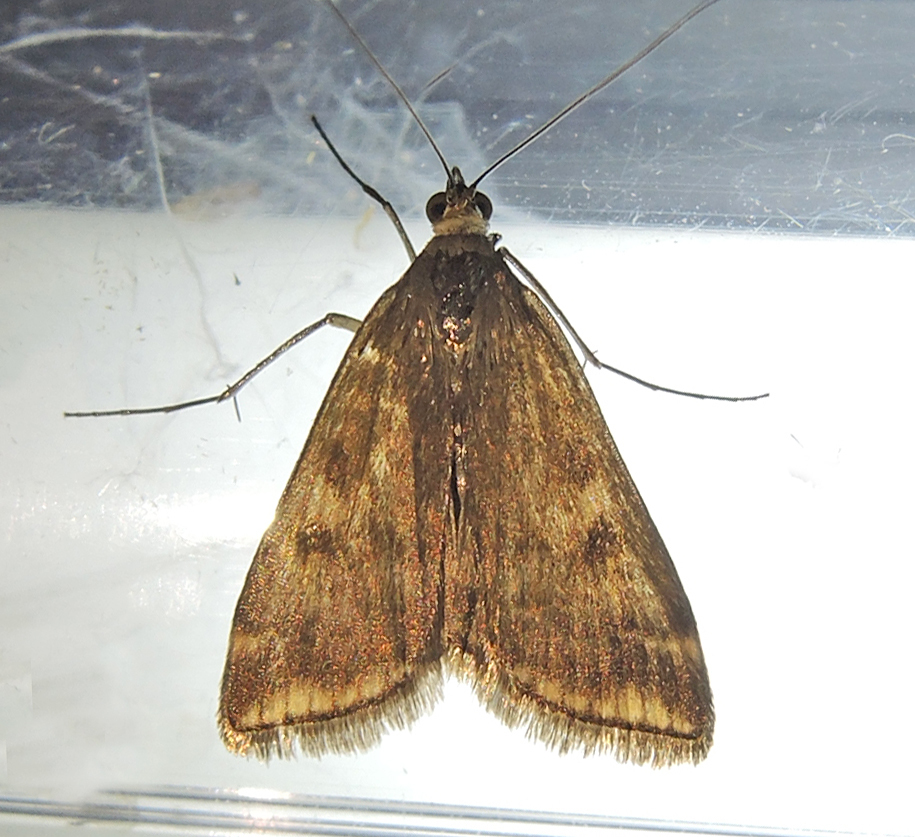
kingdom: Animalia
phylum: Arthropoda
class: Insecta
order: Lepidoptera
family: Crambidae
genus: Loxostege
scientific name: Loxostege sticticalis
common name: Crambid moth
